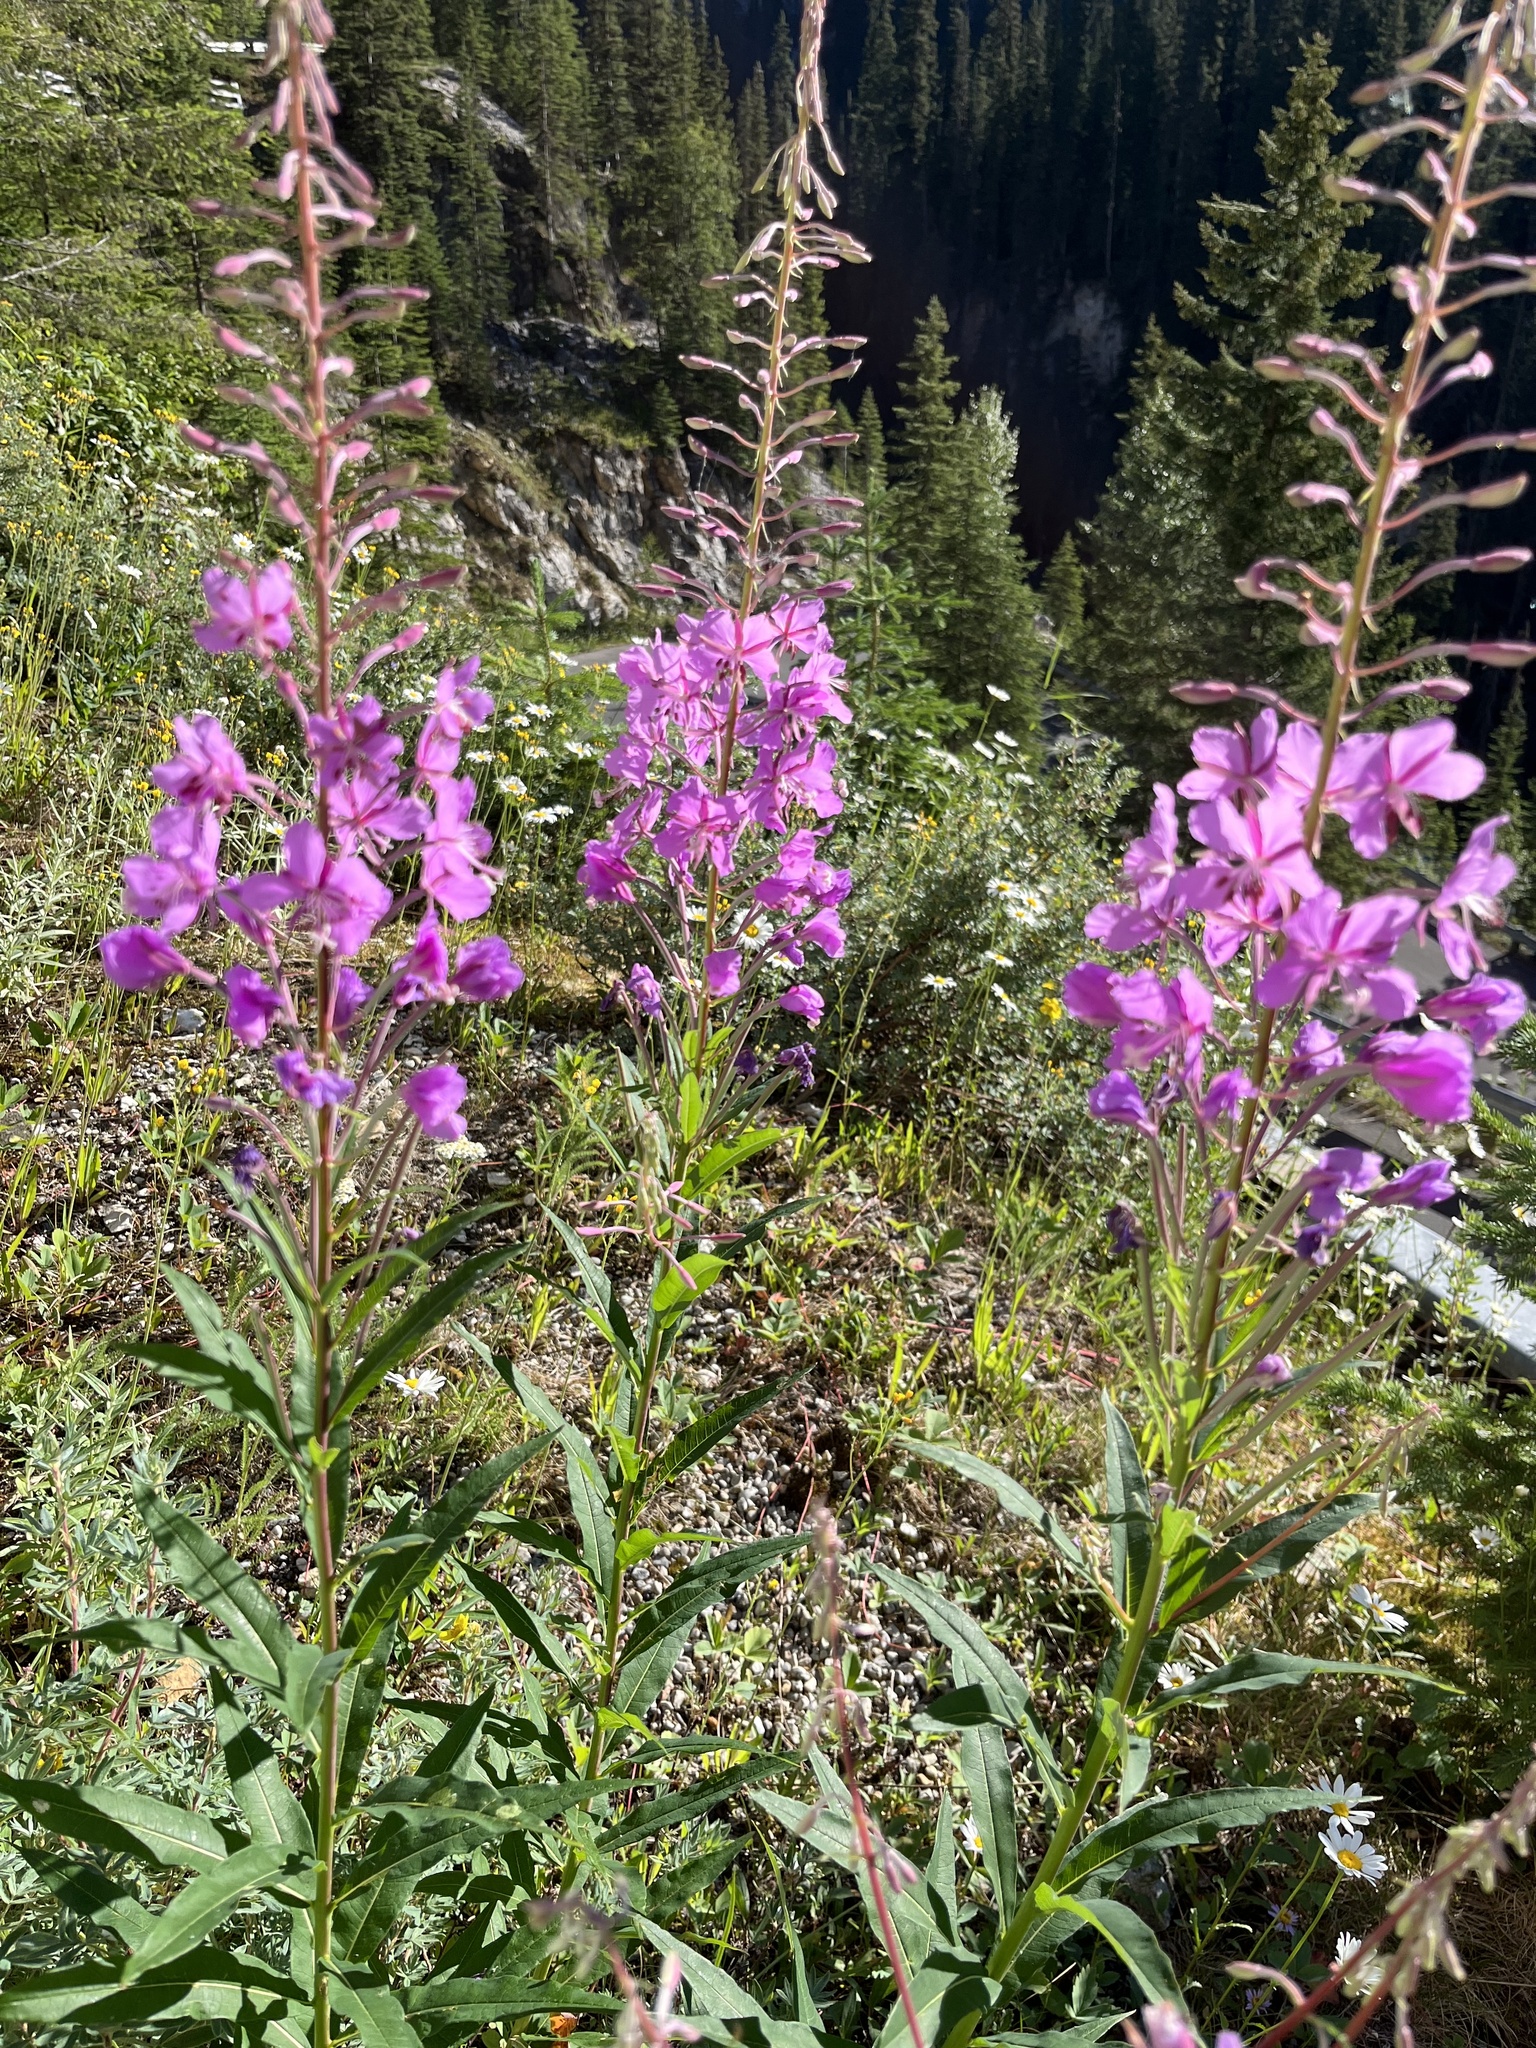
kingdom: Plantae
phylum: Tracheophyta
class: Magnoliopsida
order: Myrtales
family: Onagraceae
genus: Chamaenerion
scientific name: Chamaenerion angustifolium
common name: Fireweed
